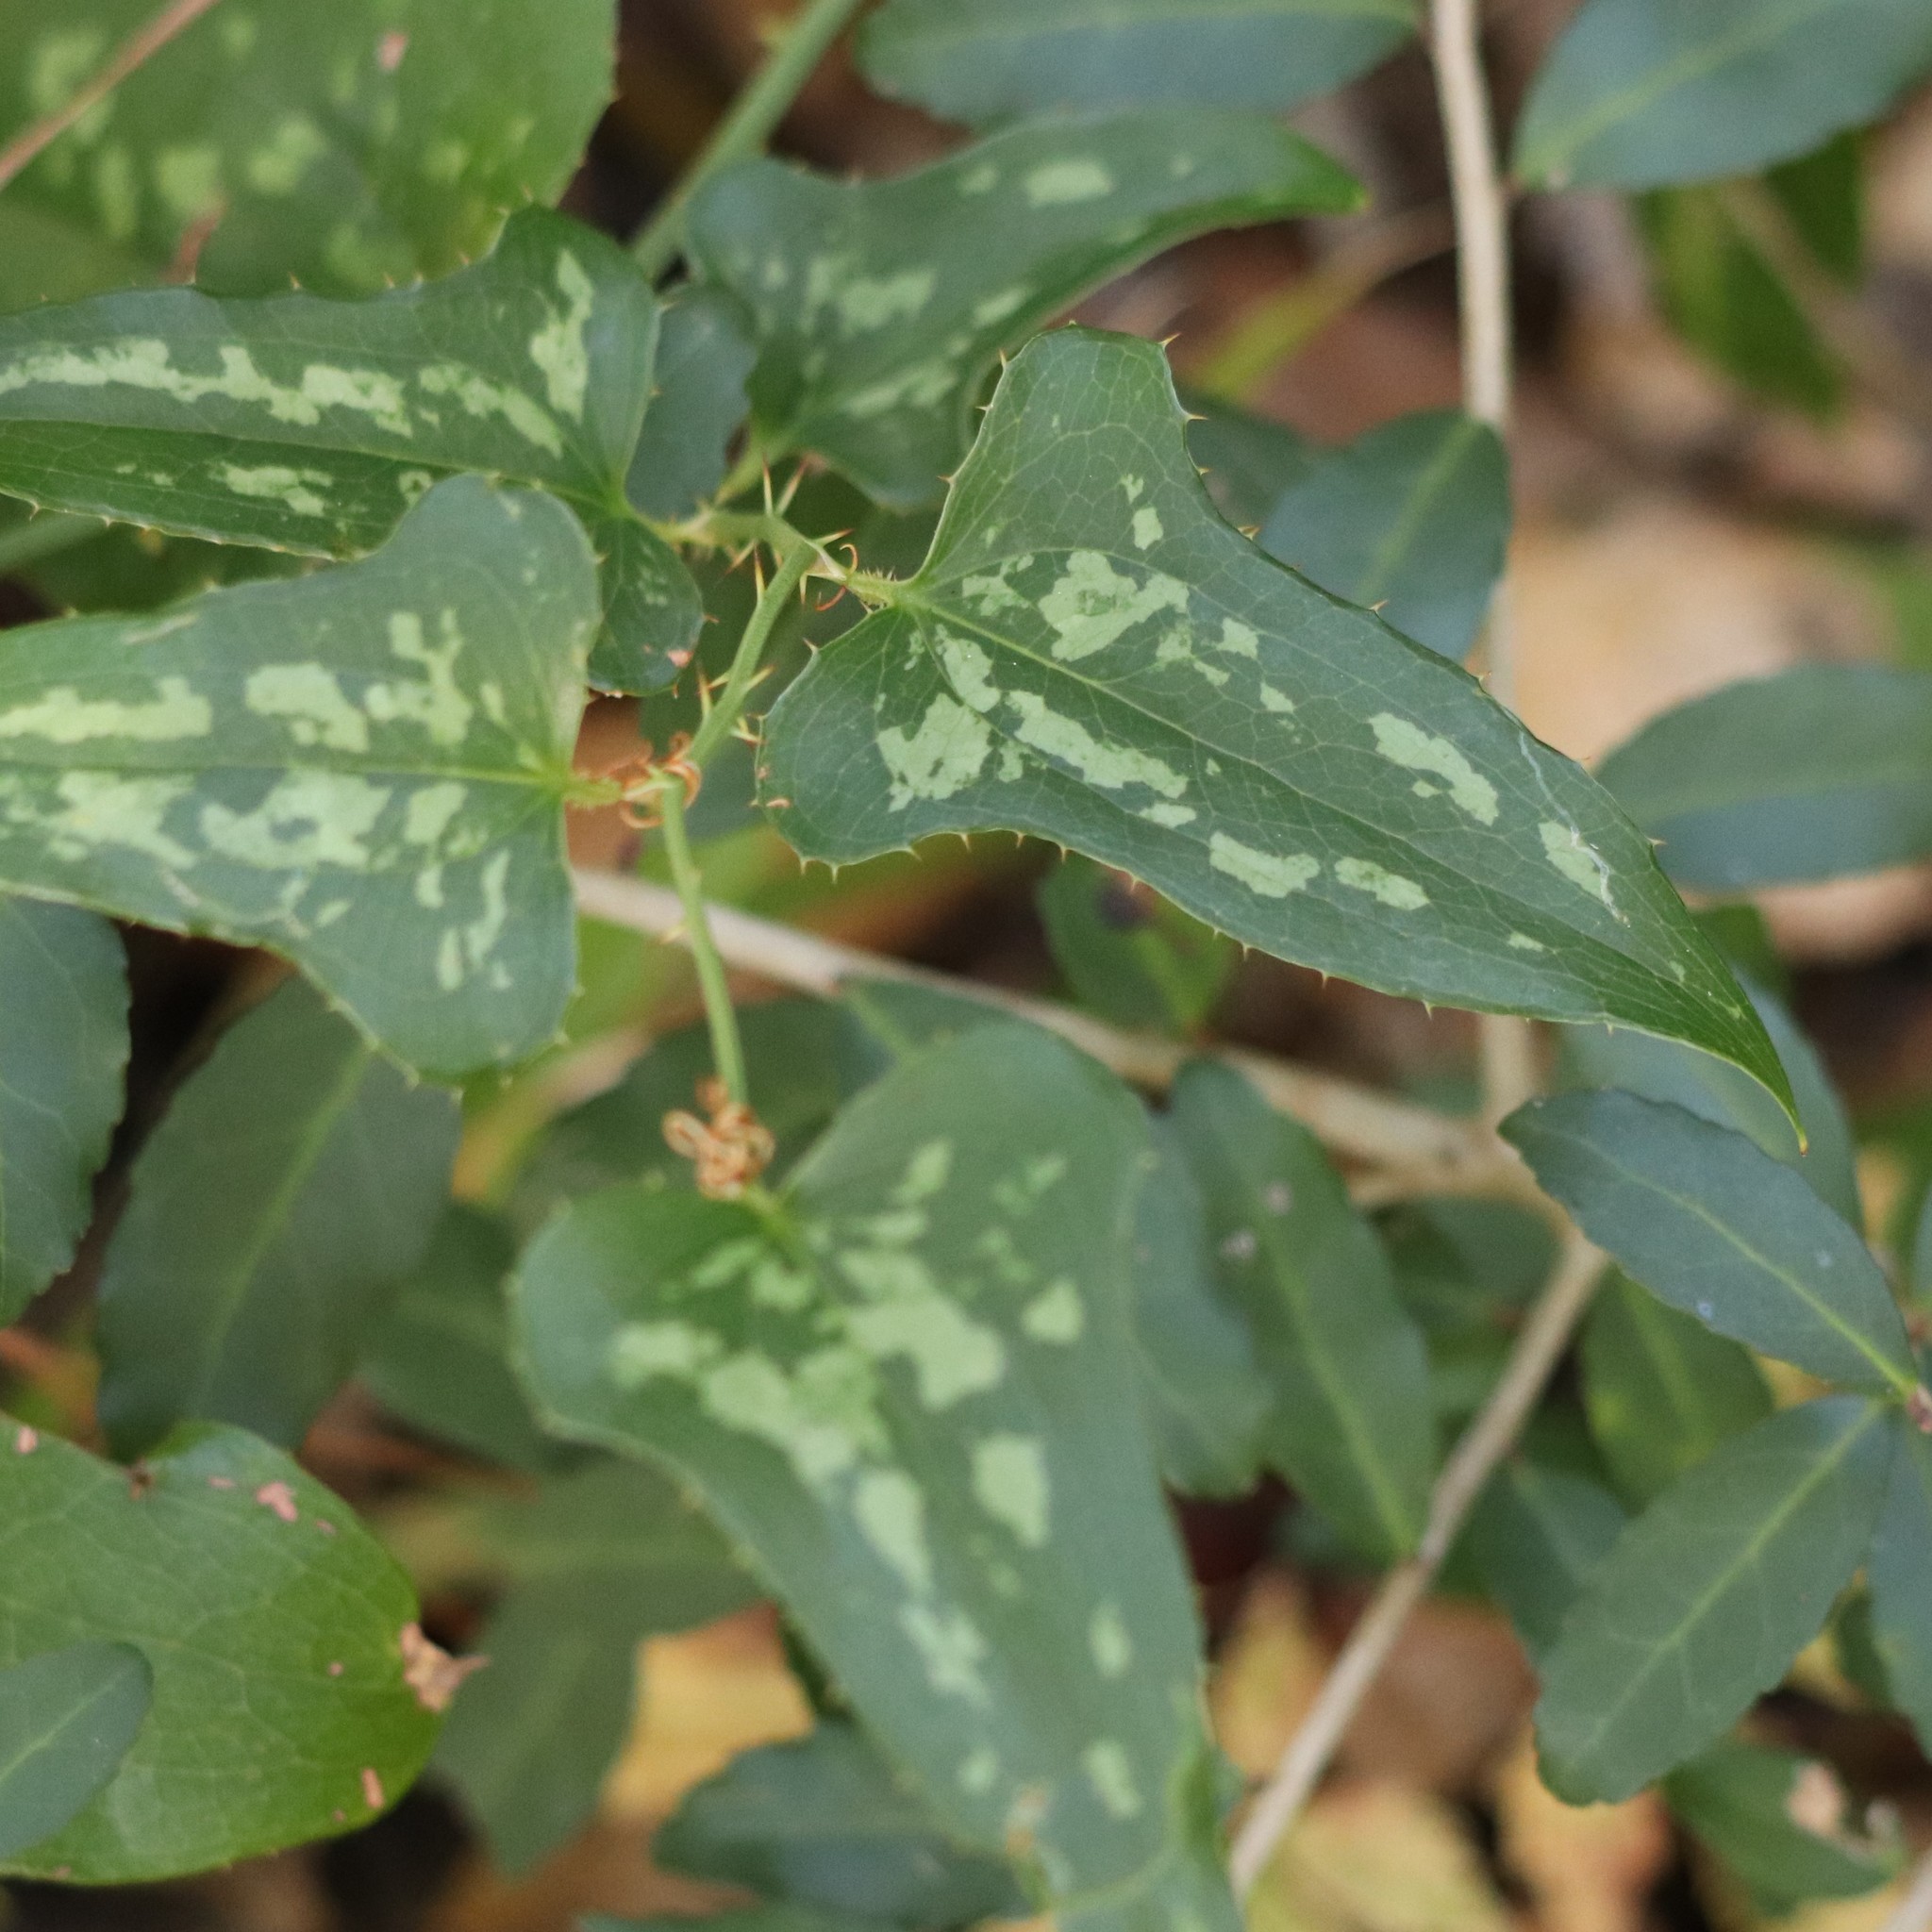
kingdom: Plantae
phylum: Tracheophyta
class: Liliopsida
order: Liliales
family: Smilacaceae
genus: Smilax
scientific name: Smilax bona-nox
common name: Catbrier
